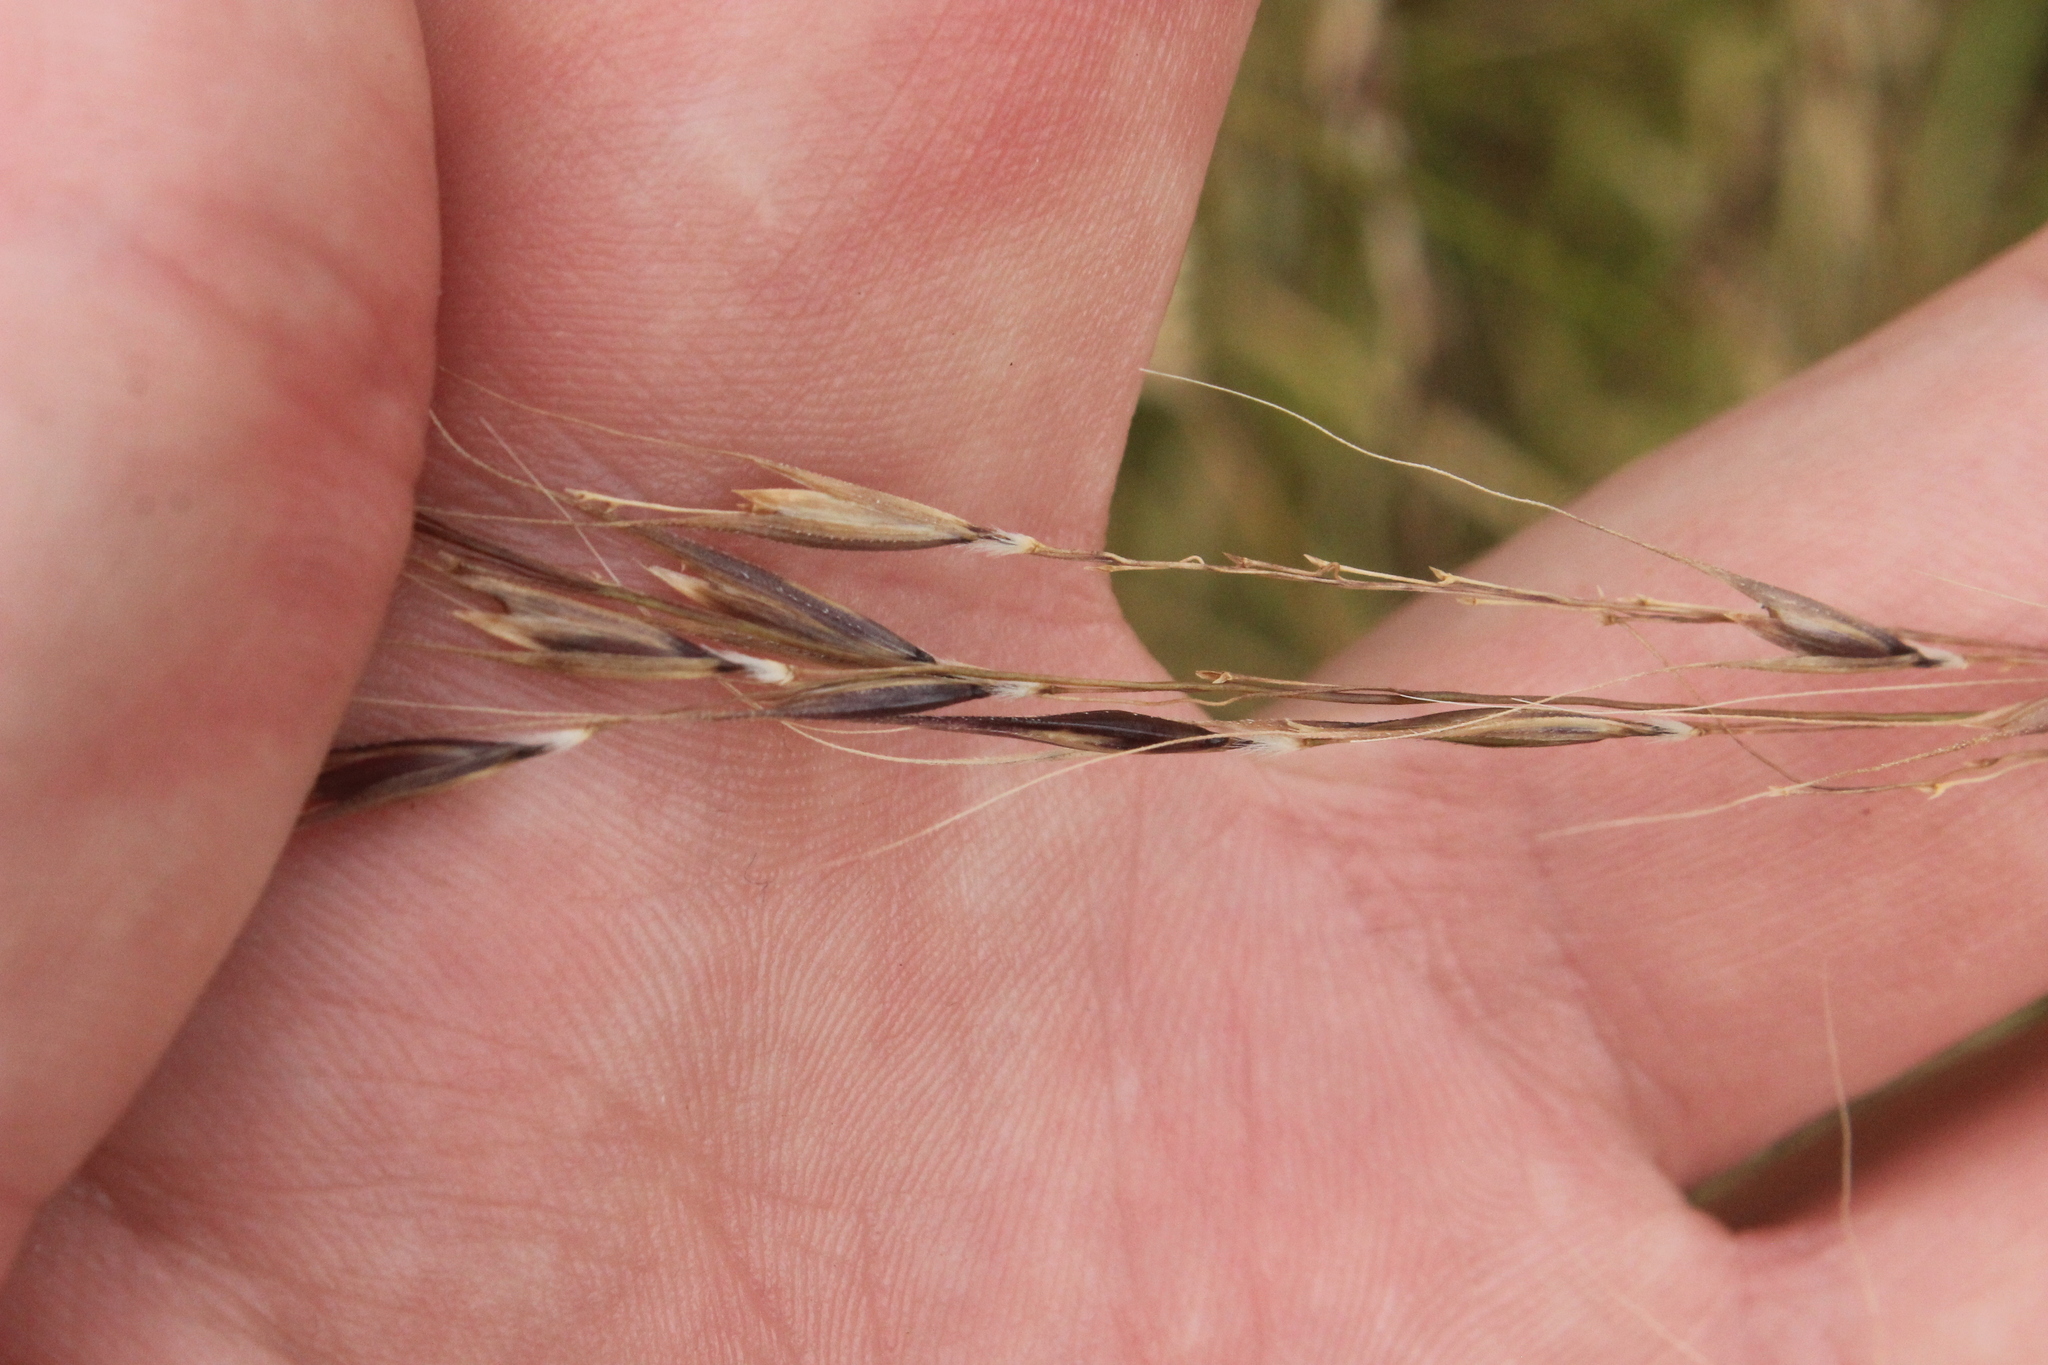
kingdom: Plantae
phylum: Tracheophyta
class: Liliopsida
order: Poales
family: Poaceae
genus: Microlaena
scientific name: Microlaena stipoides
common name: Meadow ricegrass
